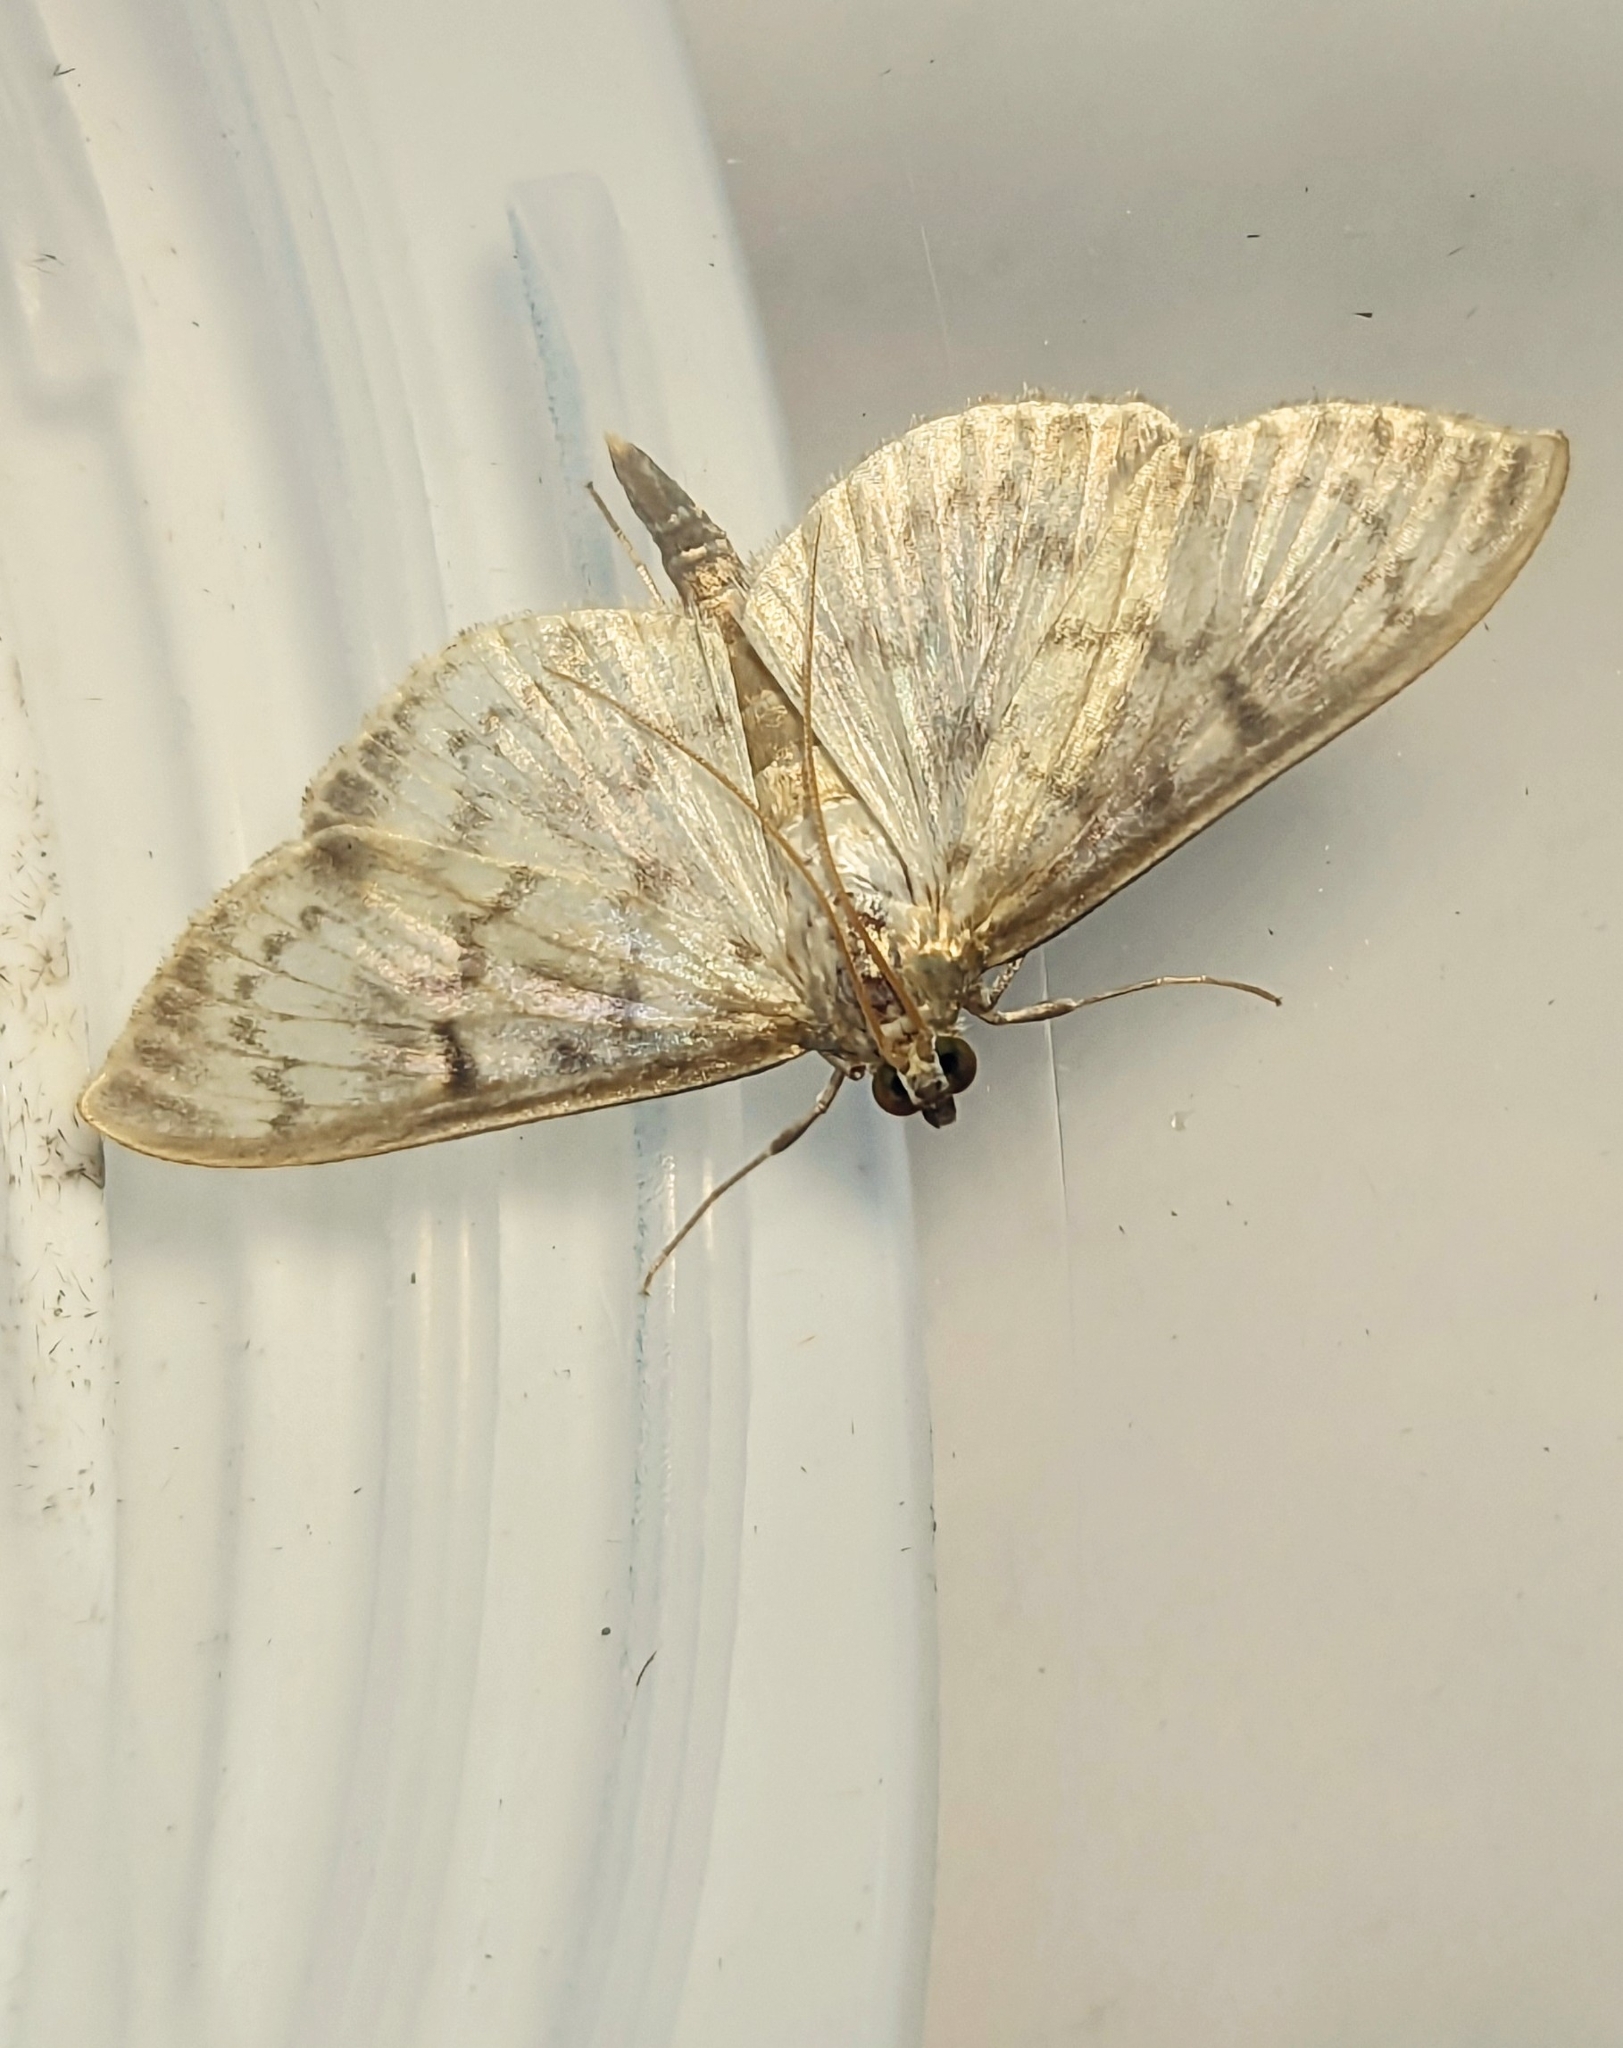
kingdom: Animalia
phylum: Arthropoda
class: Insecta
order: Lepidoptera
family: Crambidae
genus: Patania
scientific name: Patania ruralis
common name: Mother of pearl
